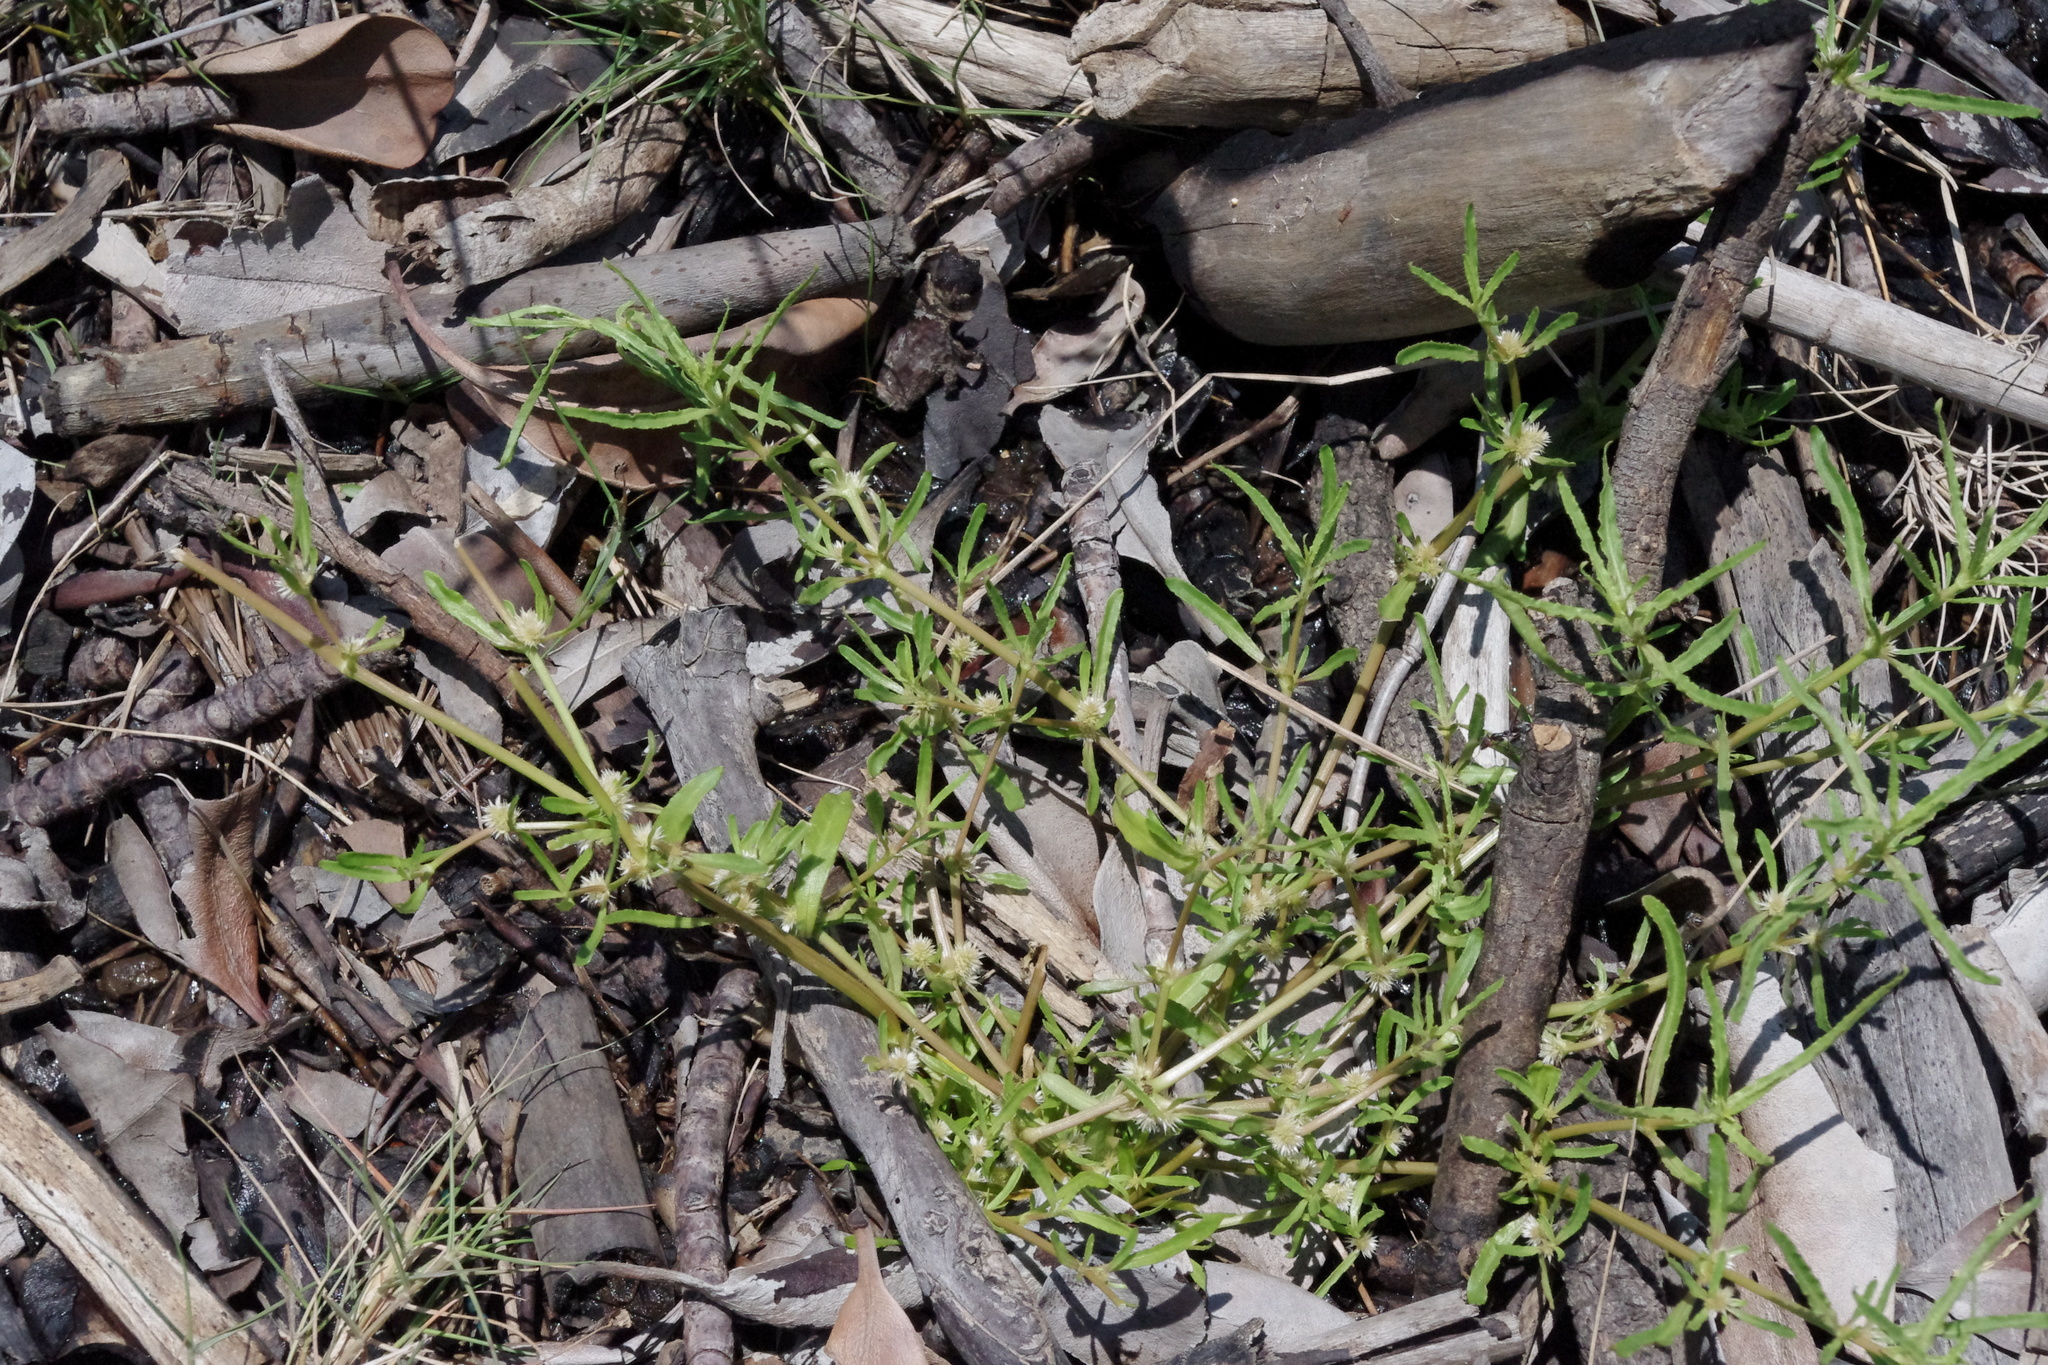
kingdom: Plantae
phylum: Tracheophyta
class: Magnoliopsida
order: Caryophyllales
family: Amaranthaceae
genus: Alternanthera
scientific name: Alternanthera denticulata
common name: Lesser joyweed
